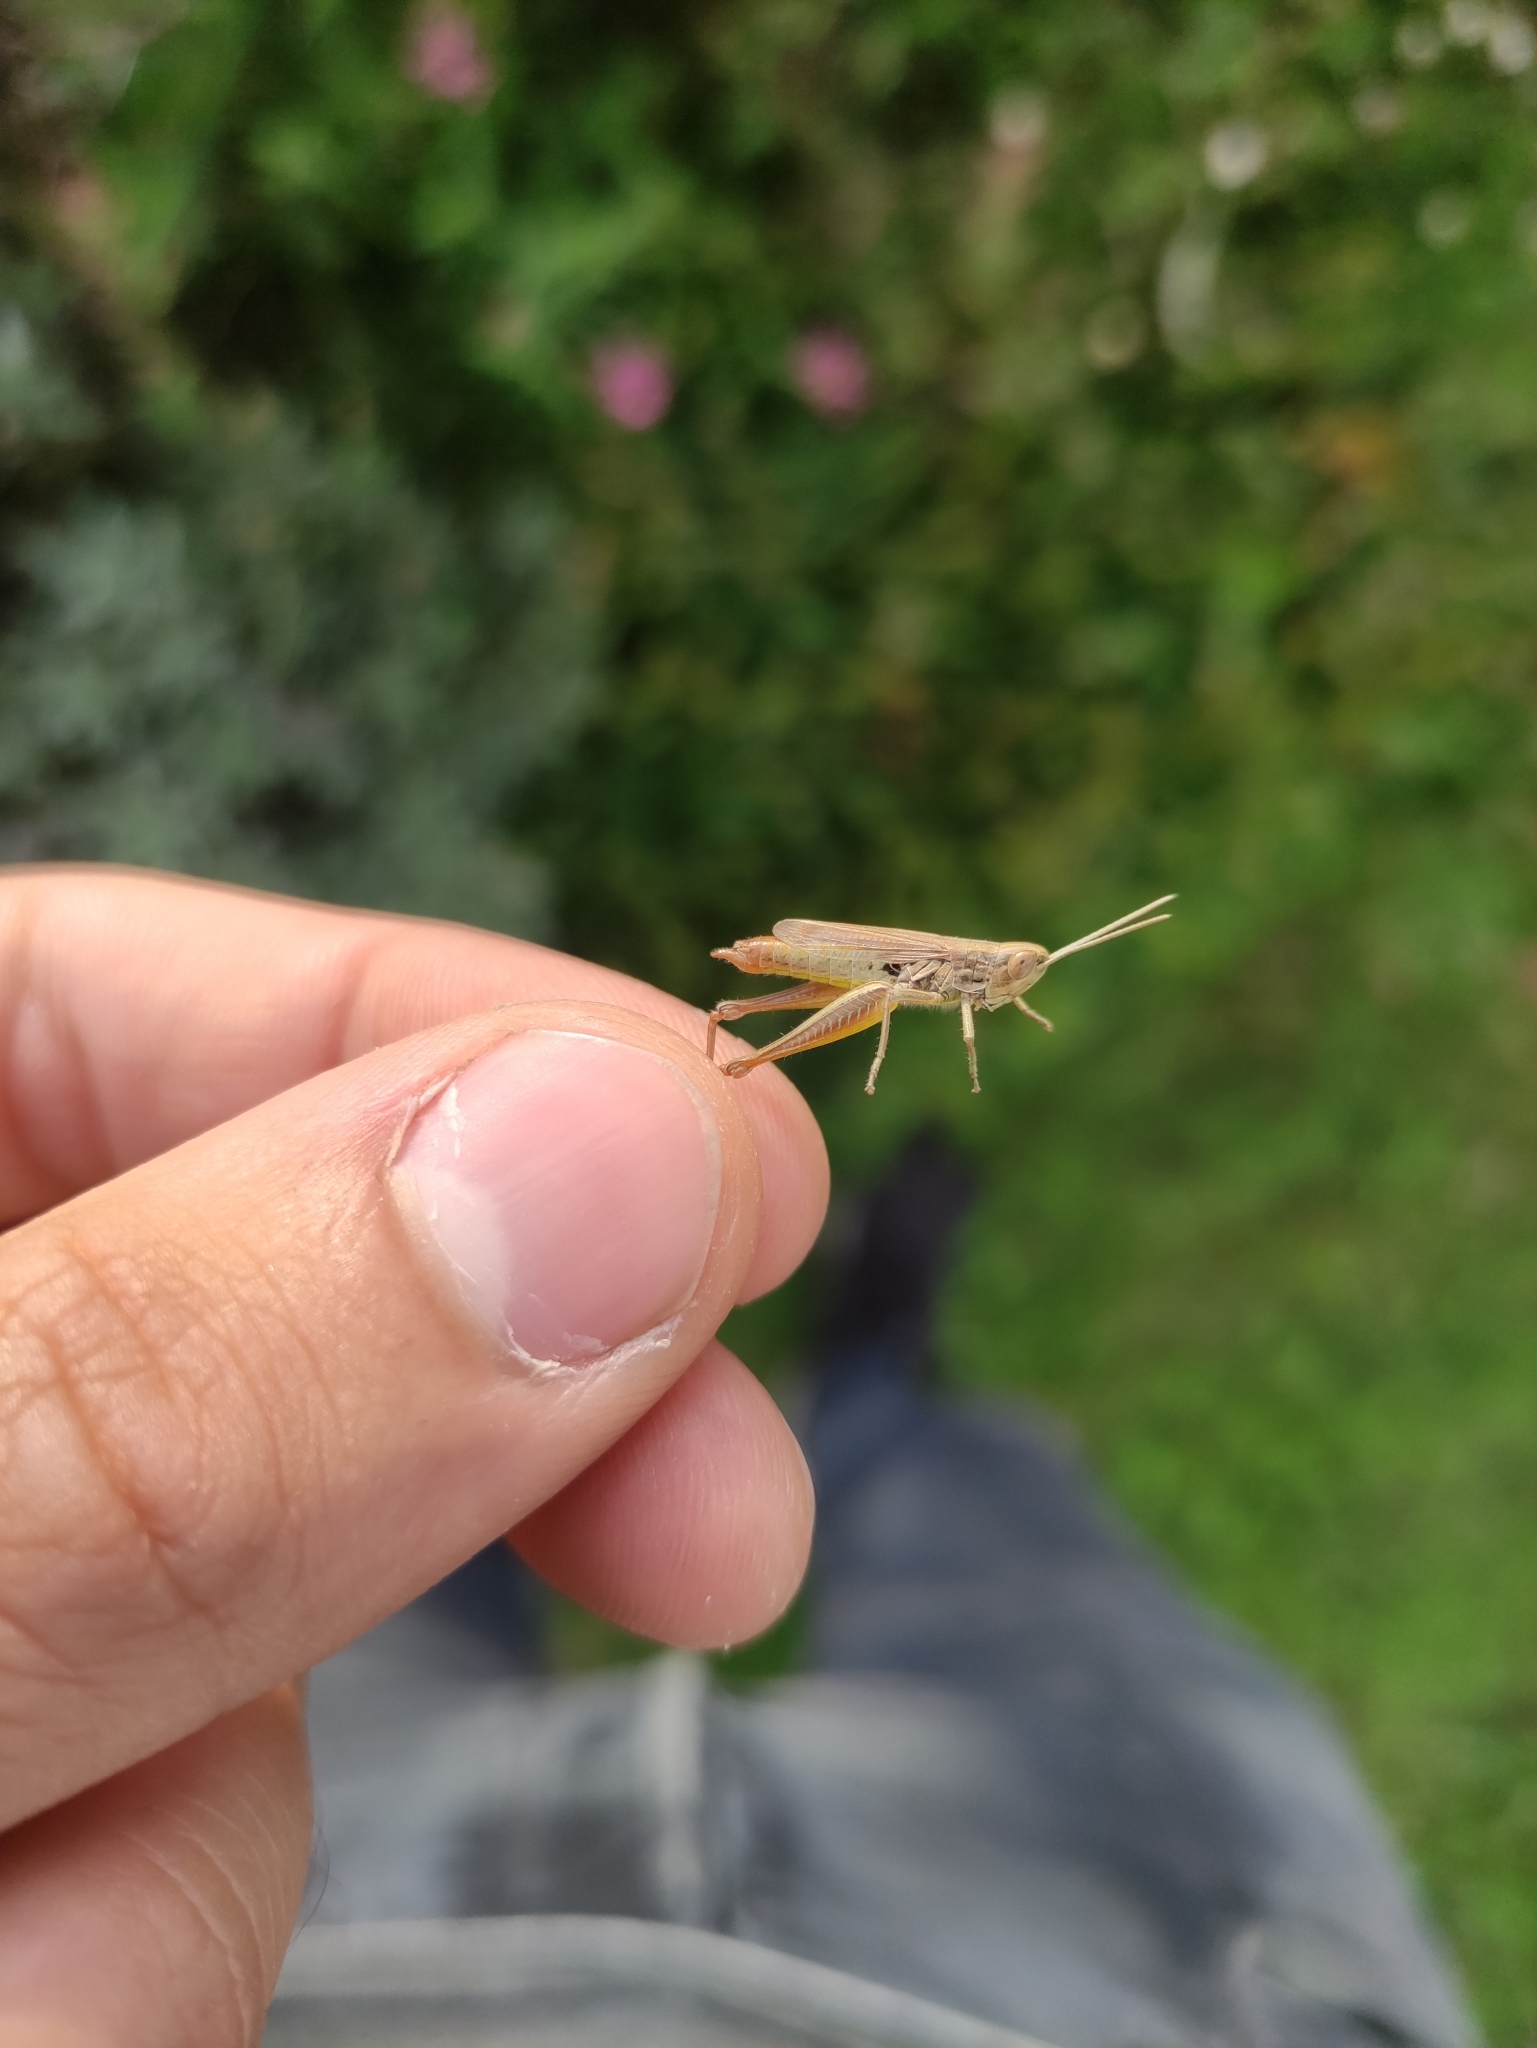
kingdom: Animalia
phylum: Arthropoda
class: Insecta
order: Orthoptera
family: Acrididae
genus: Euchorthippus
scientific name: Euchorthippus declivus
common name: Common straw grasshopper
